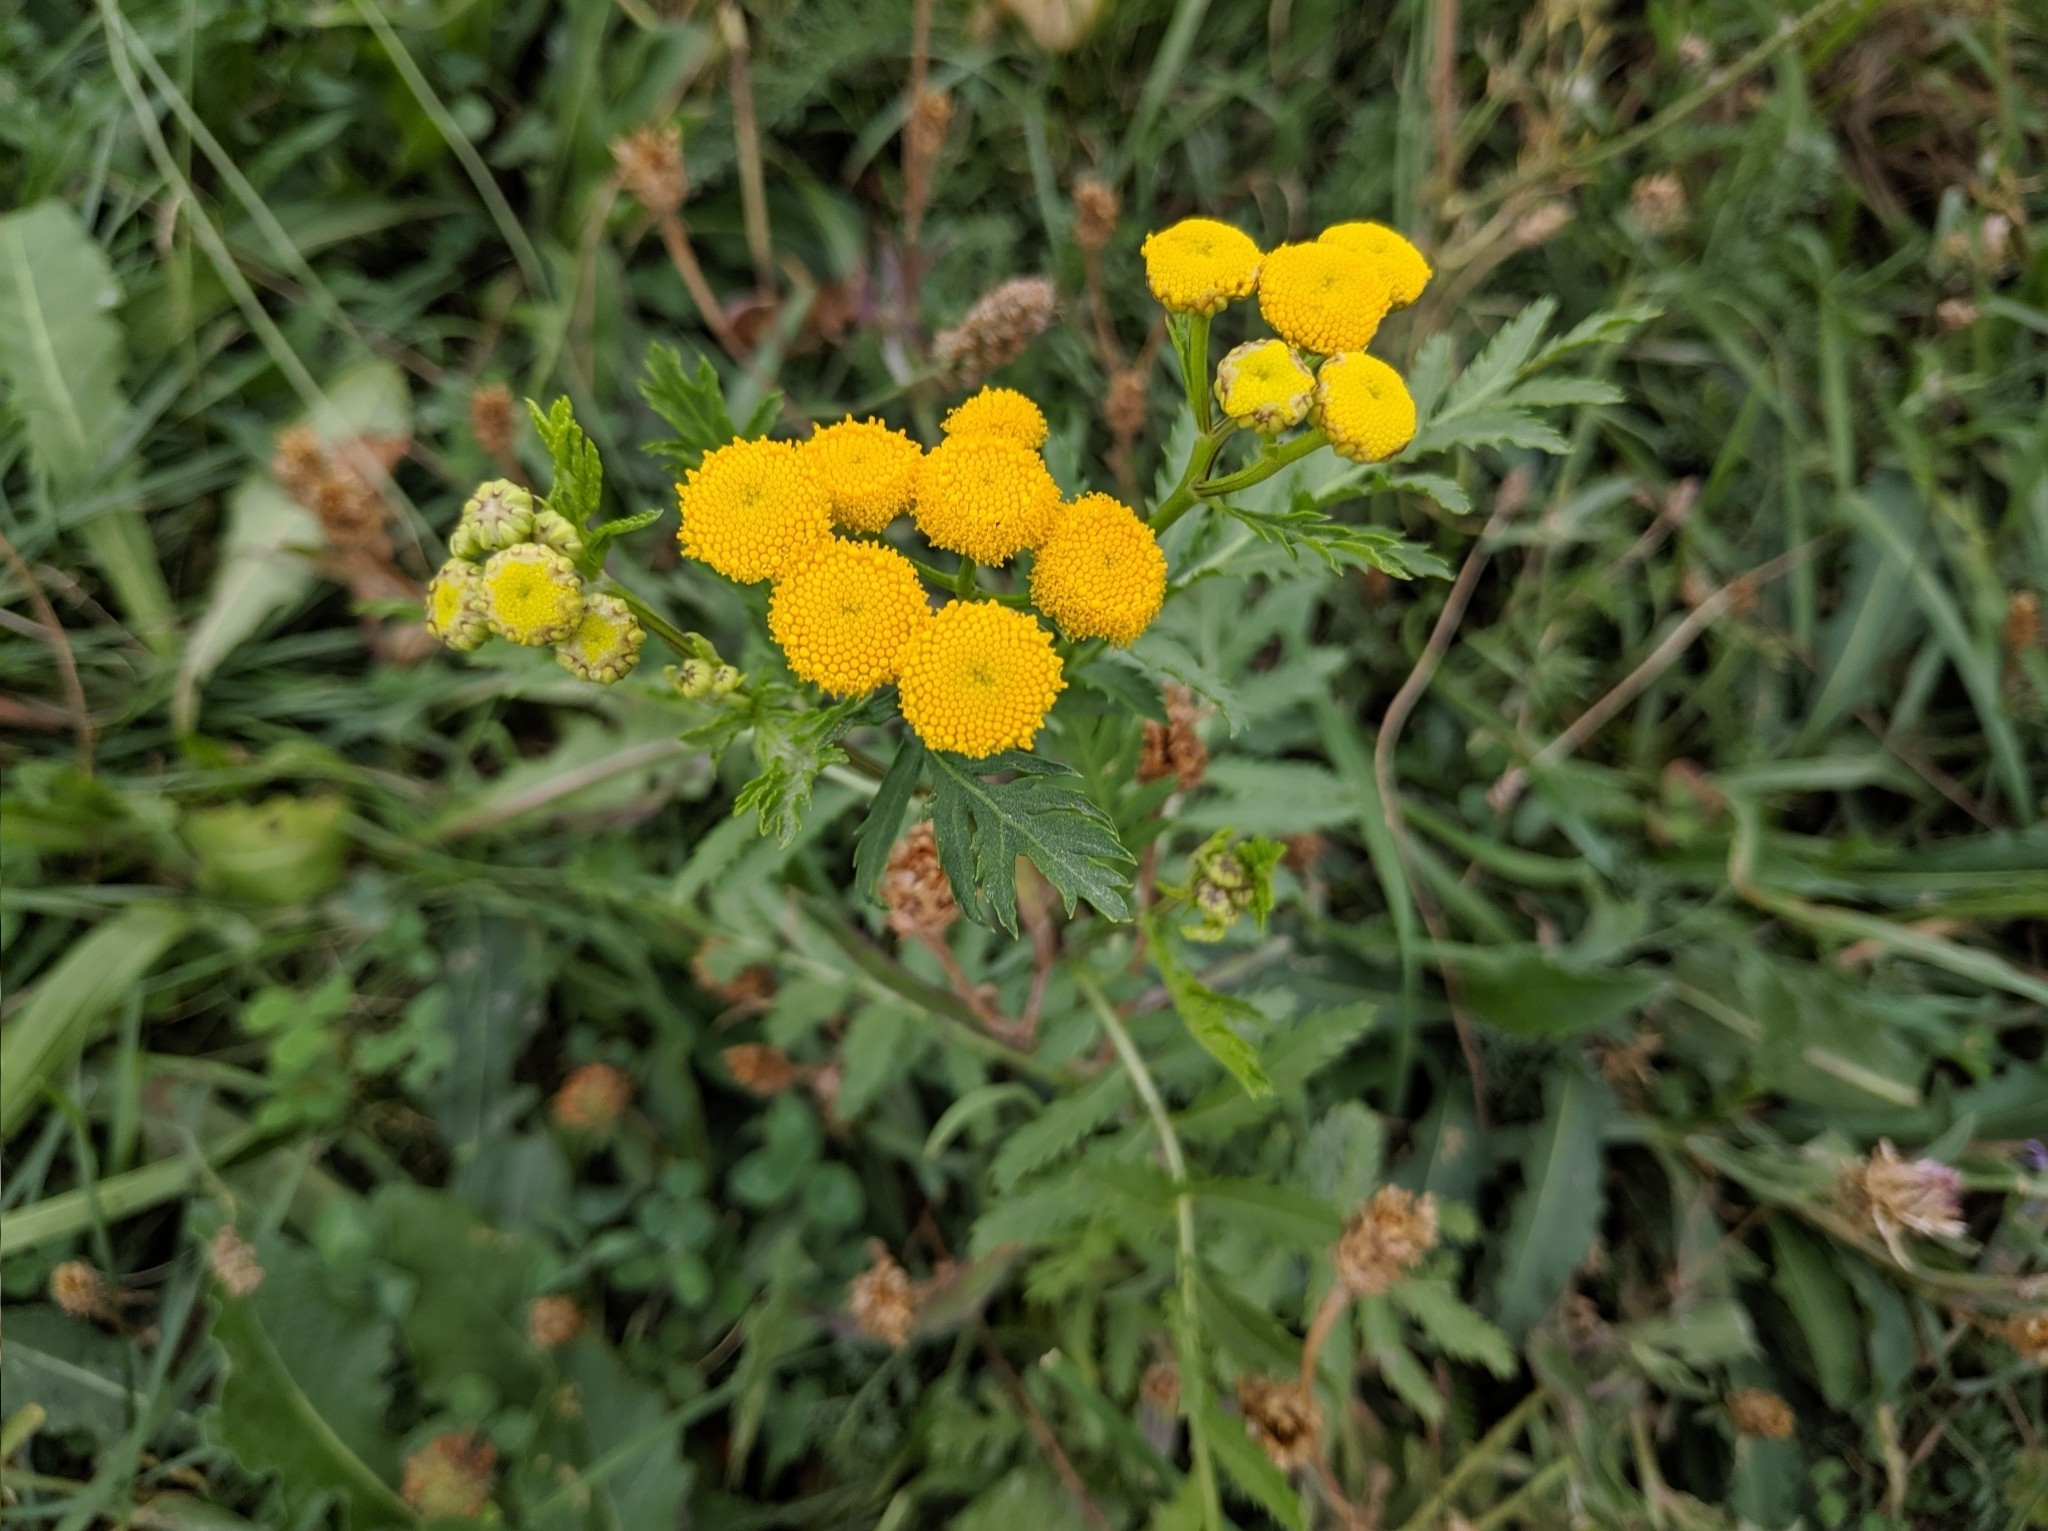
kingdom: Plantae
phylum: Tracheophyta
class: Magnoliopsida
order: Asterales
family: Asteraceae
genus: Tanacetum
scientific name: Tanacetum vulgare
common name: Common tansy
